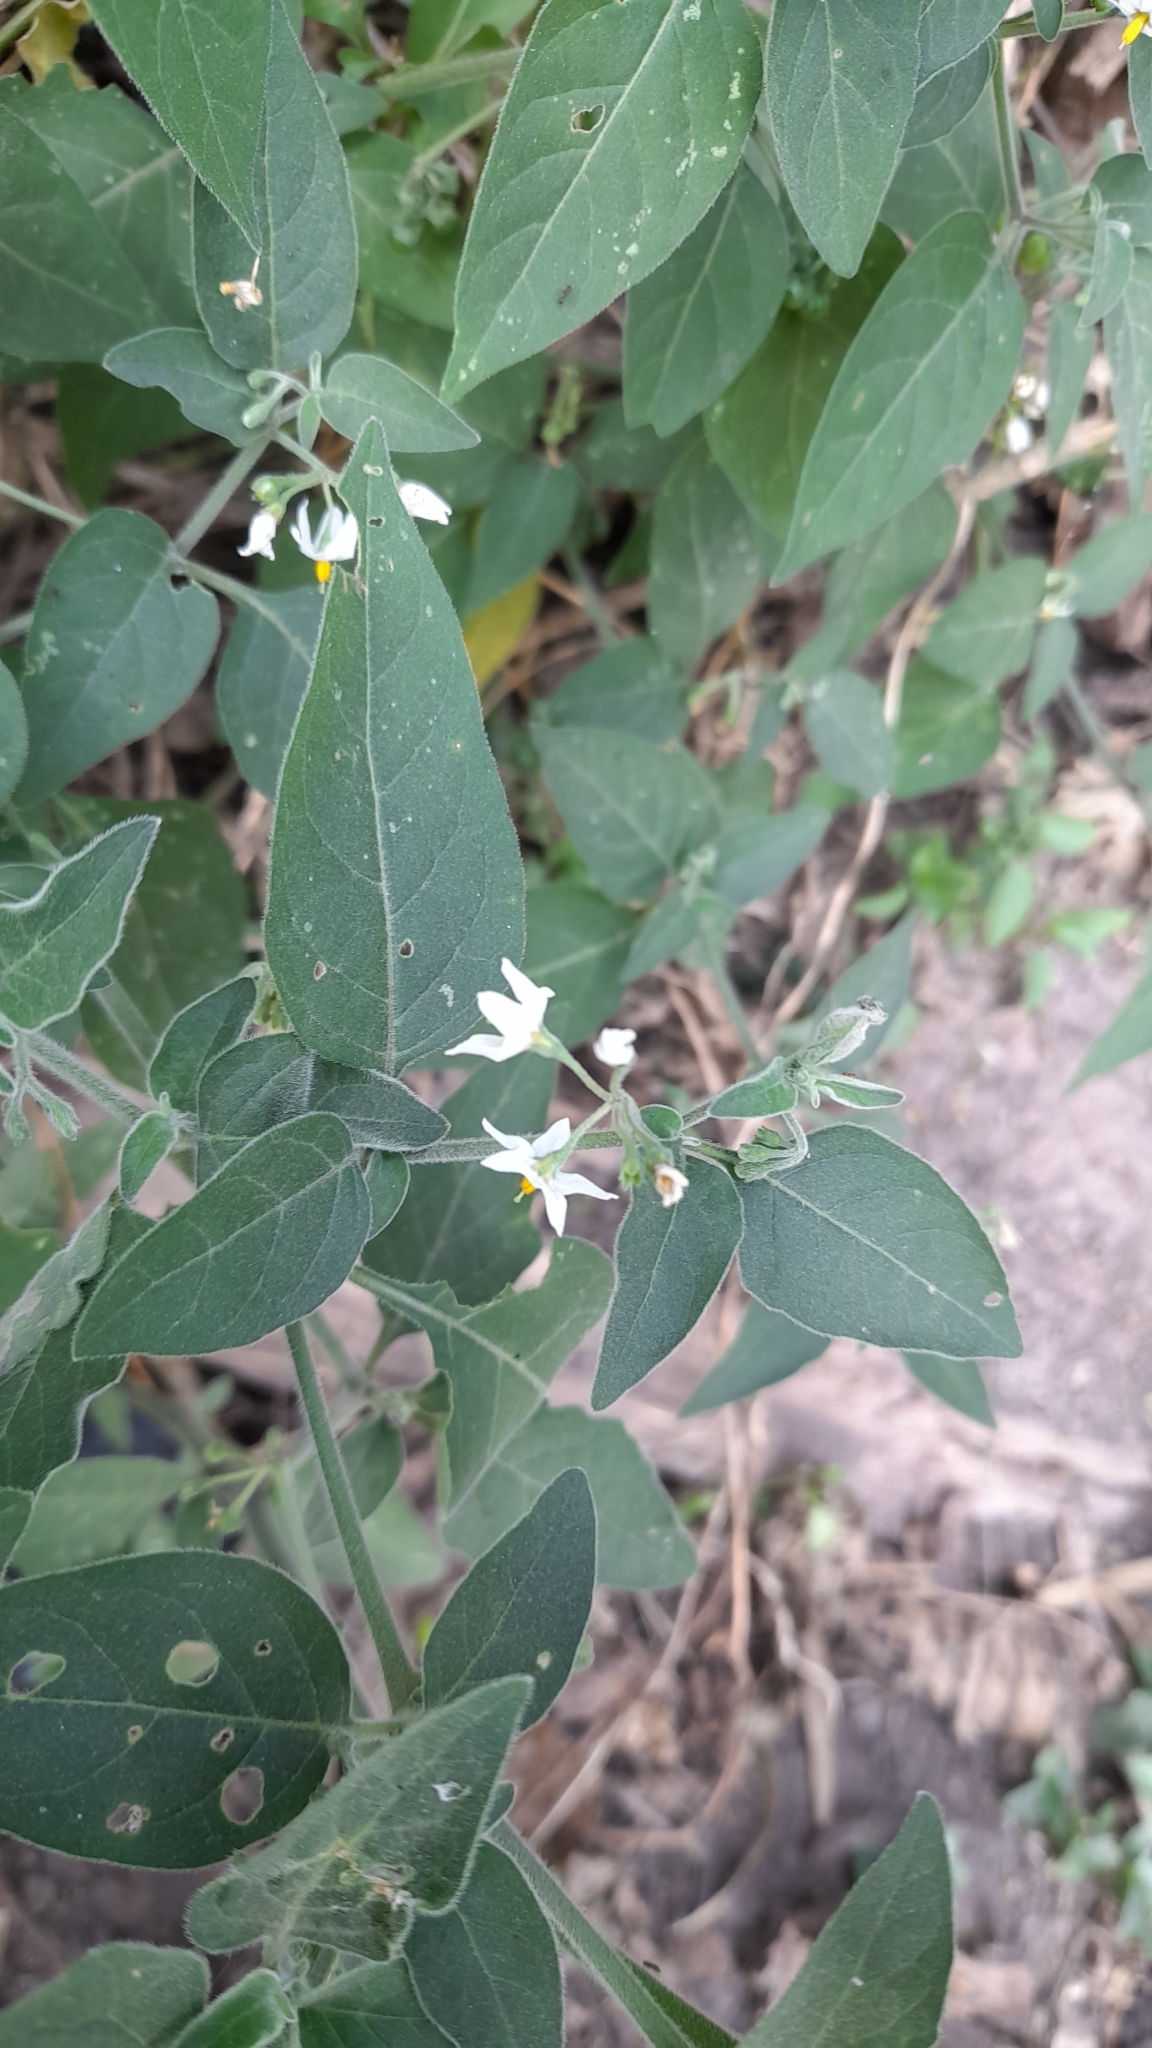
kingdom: Plantae
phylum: Tracheophyta
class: Magnoliopsida
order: Solanales
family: Solanaceae
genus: Solanum
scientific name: Solanum chenopodioides
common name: Tall nightshade
